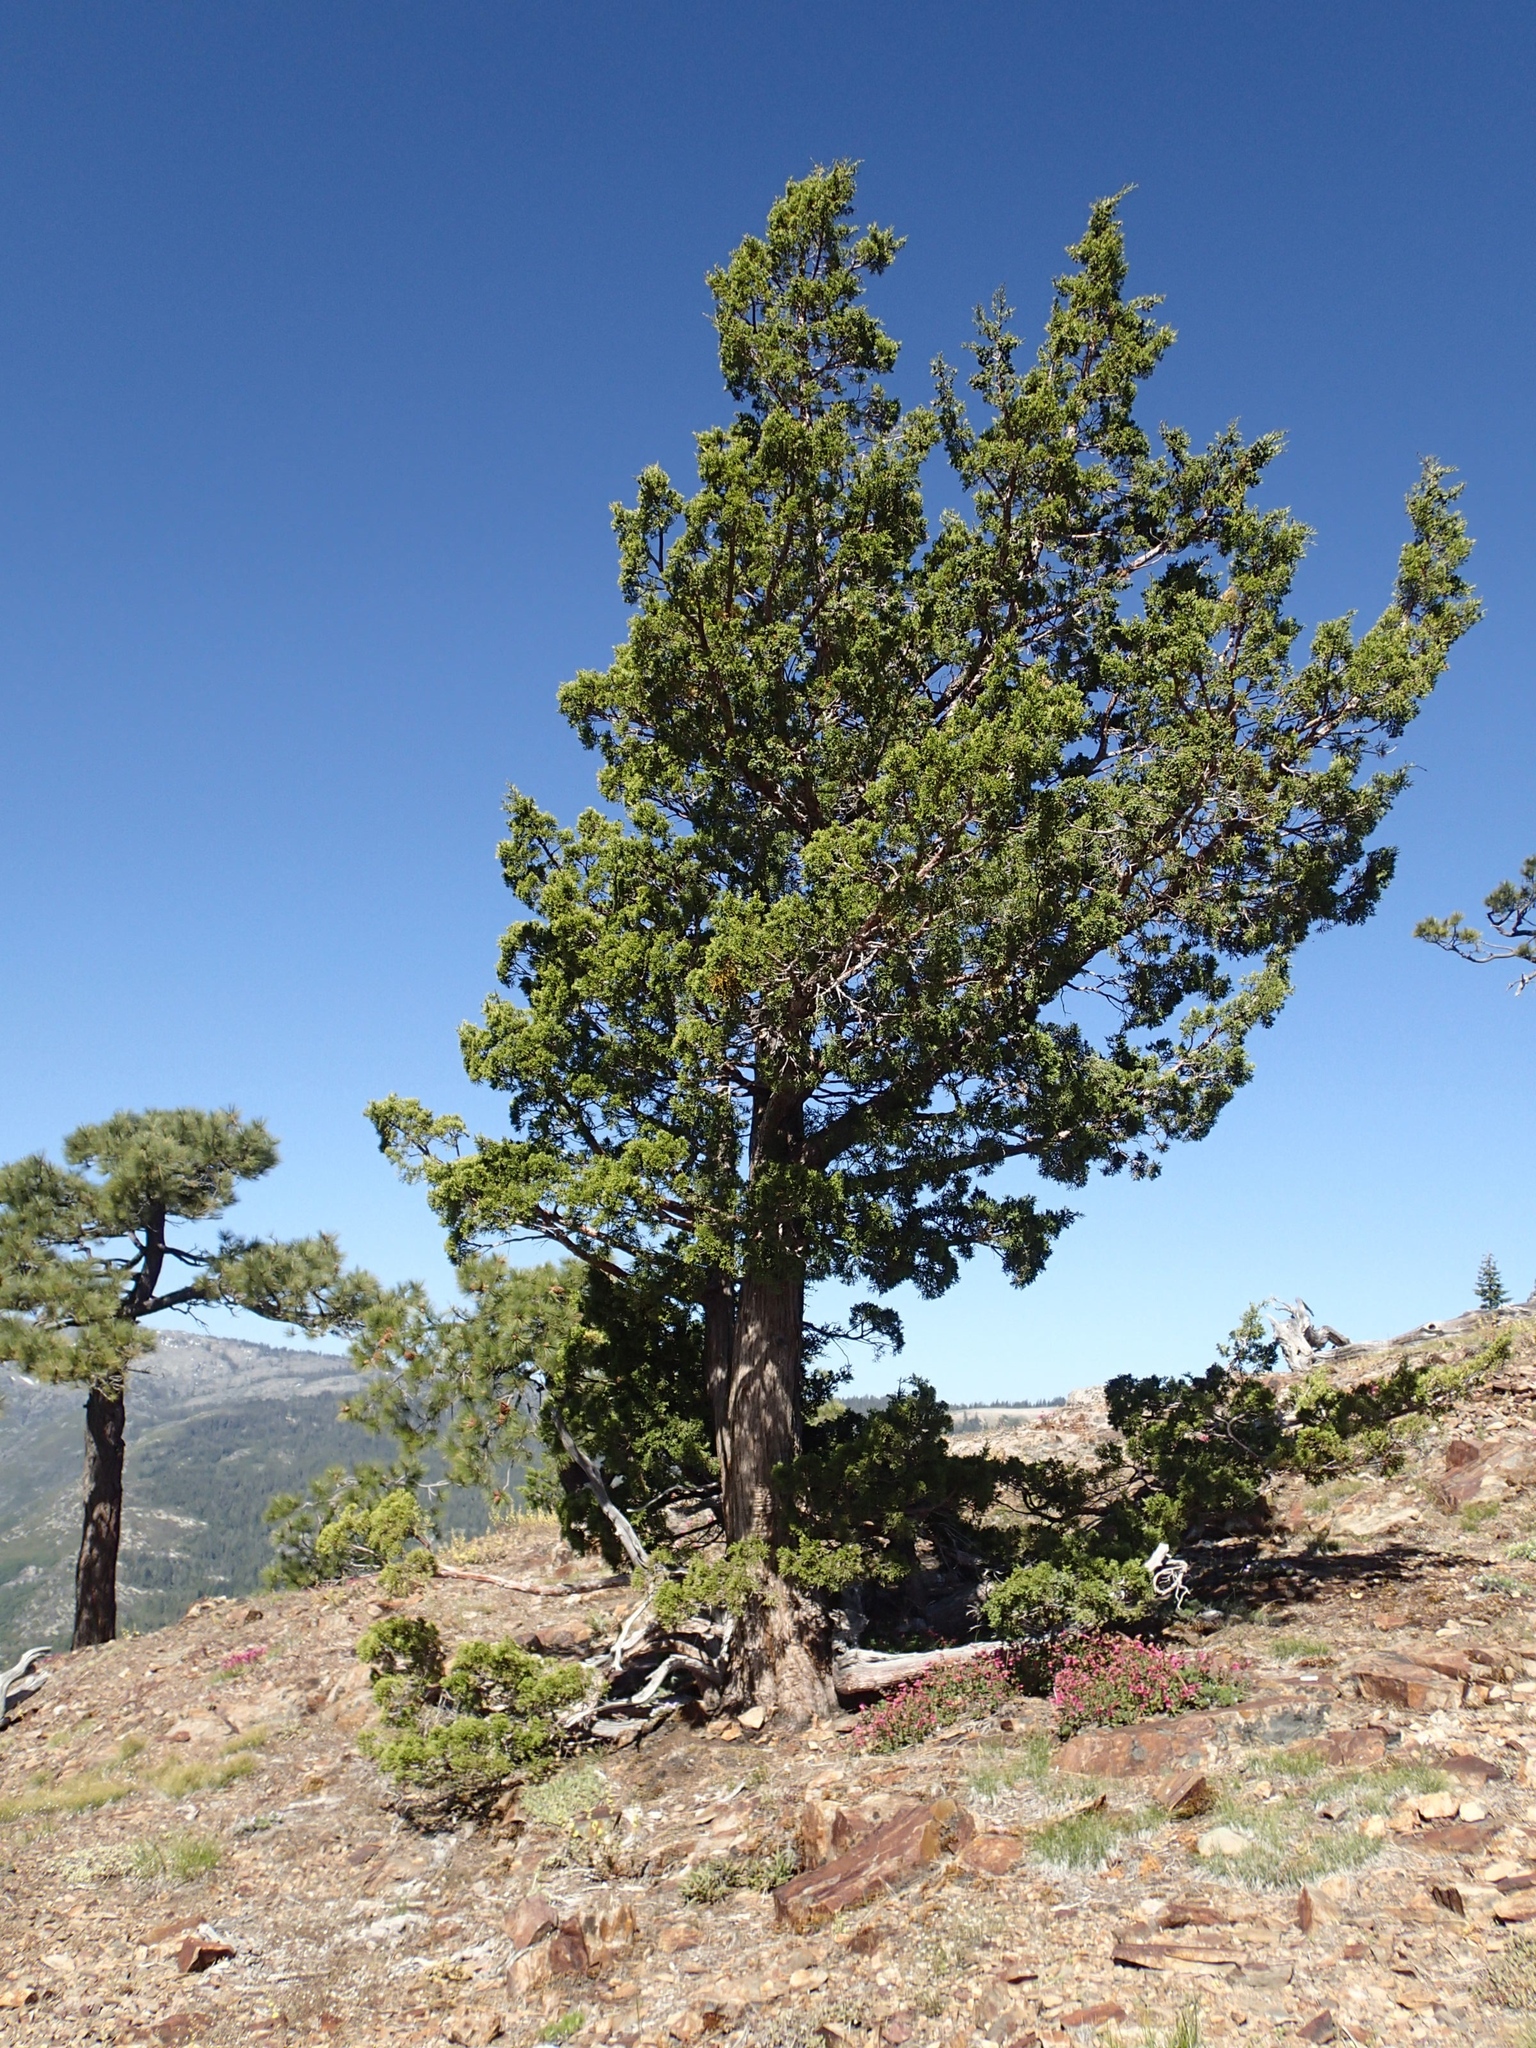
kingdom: Plantae
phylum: Tracheophyta
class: Pinopsida
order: Pinales
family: Cupressaceae
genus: Juniperus
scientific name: Juniperus occidentalis
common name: Western juniper
